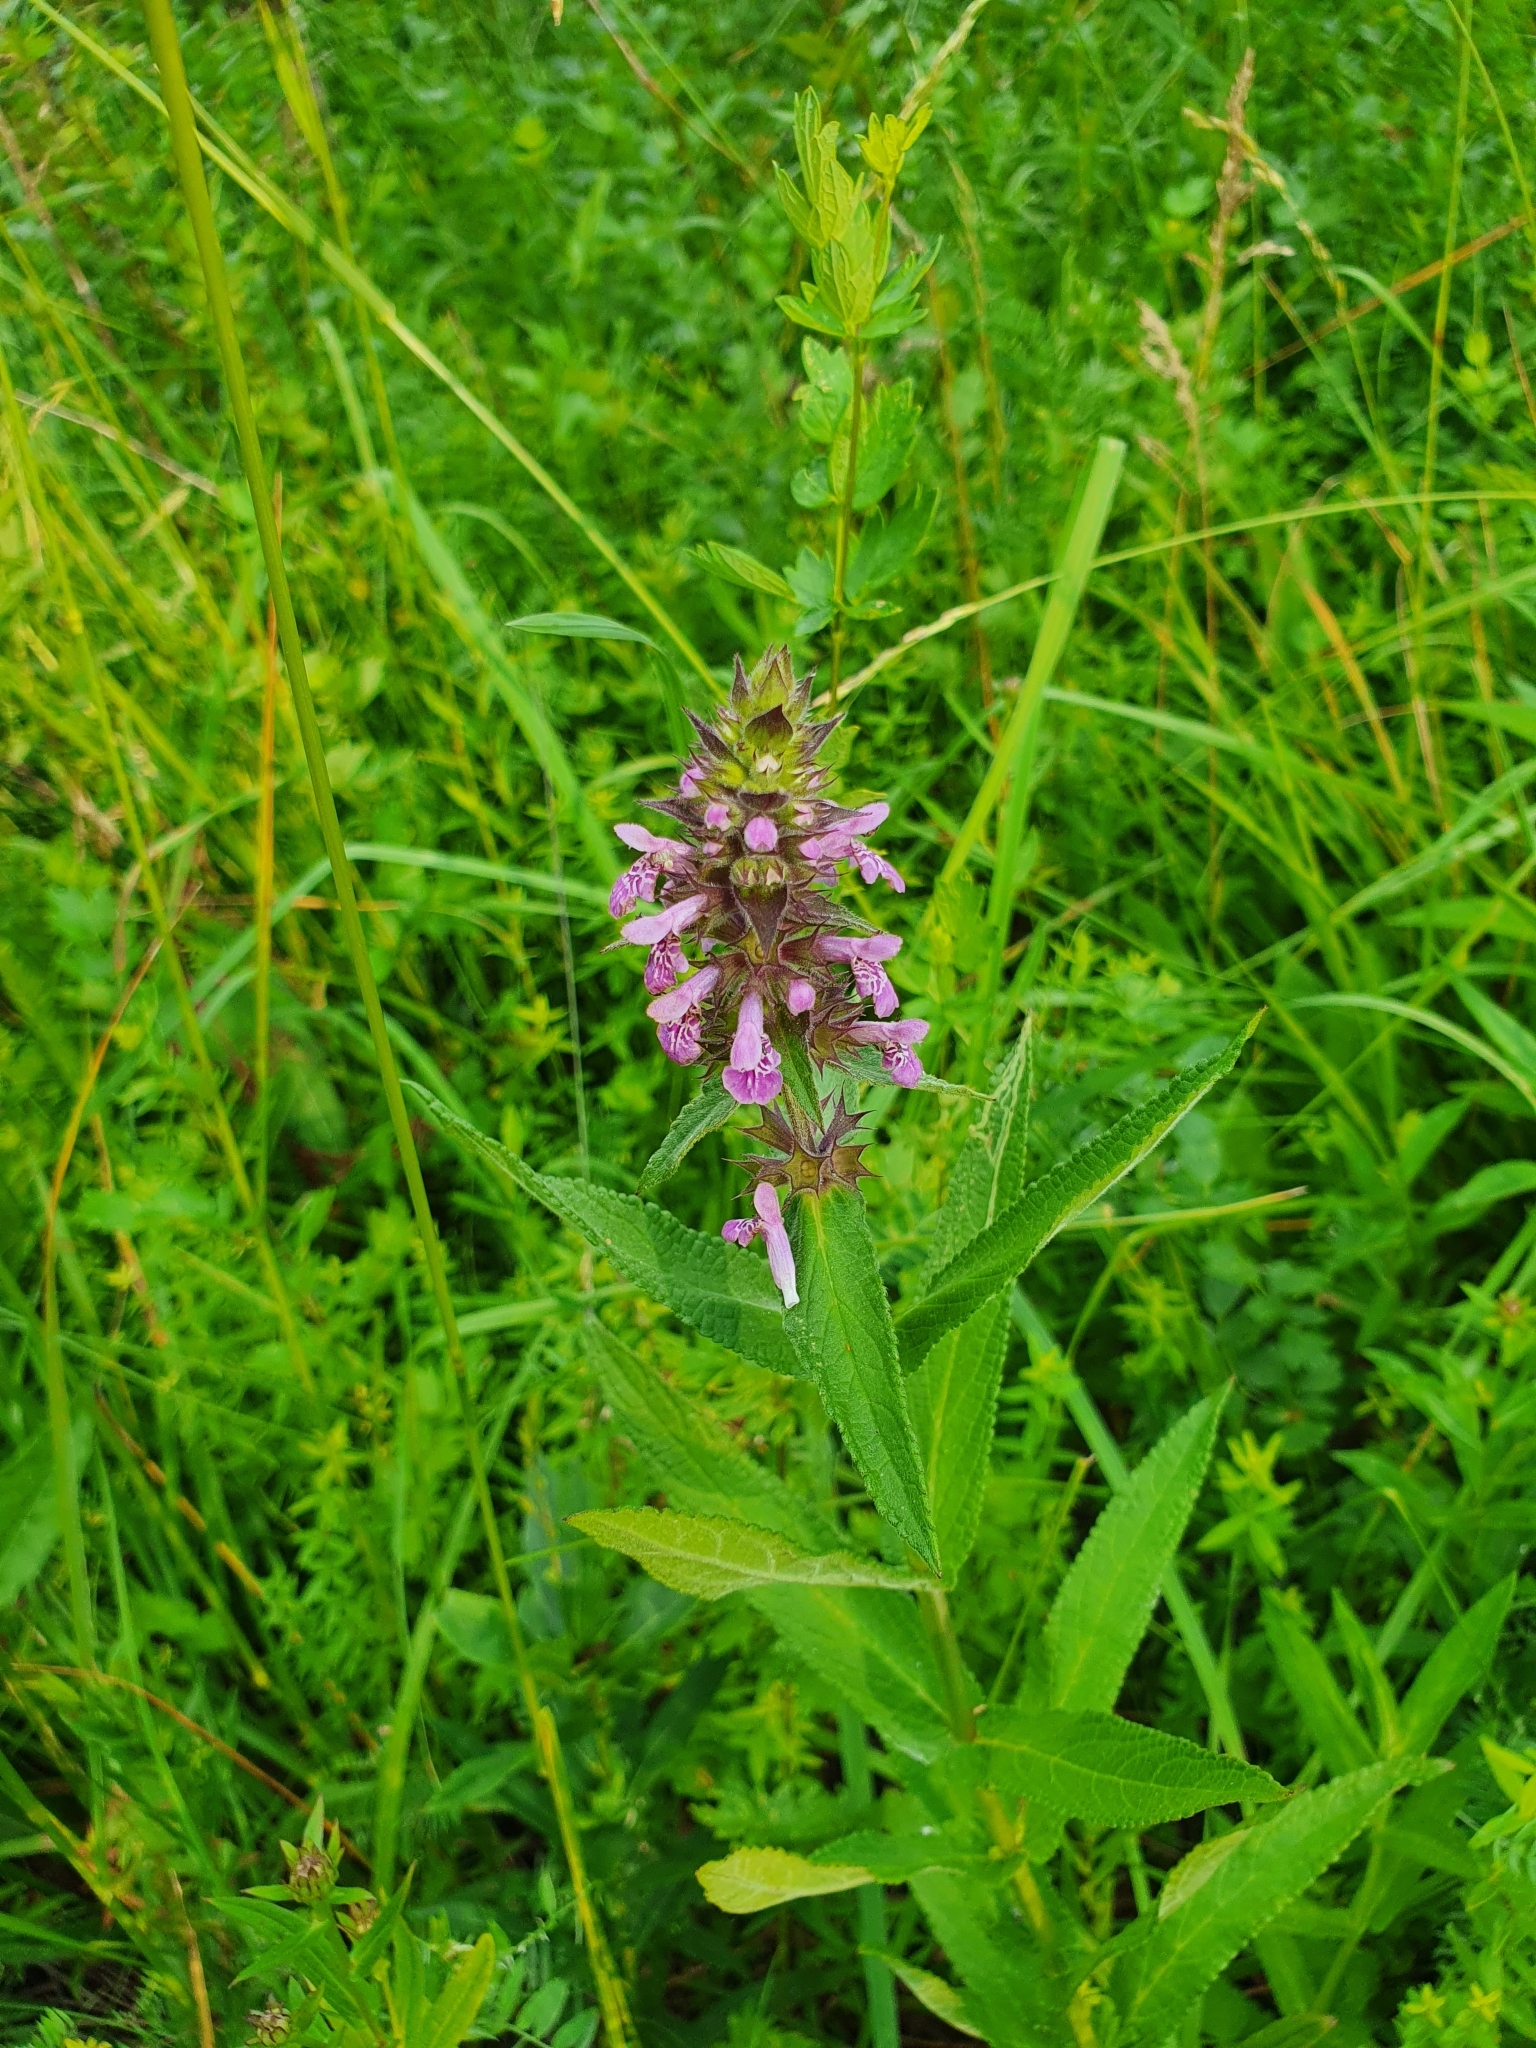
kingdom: Plantae
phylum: Tracheophyta
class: Magnoliopsida
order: Lamiales
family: Lamiaceae
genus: Stachys
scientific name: Stachys palustris
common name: Marsh woundwort
